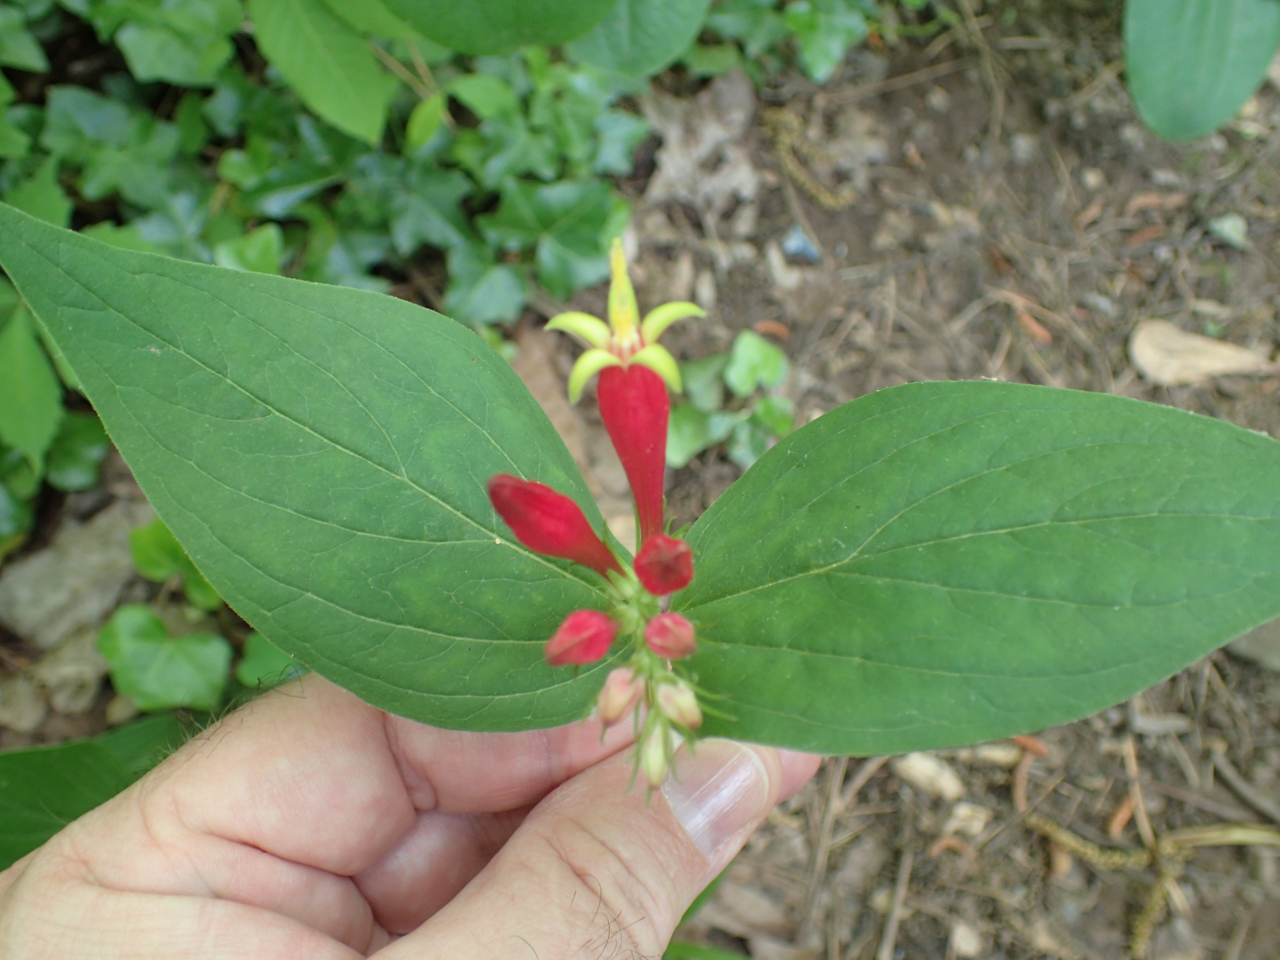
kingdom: Plantae
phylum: Tracheophyta
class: Magnoliopsida
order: Gentianales
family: Loganiaceae
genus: Spigelia
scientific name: Spigelia marilandica
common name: Indian-pink
